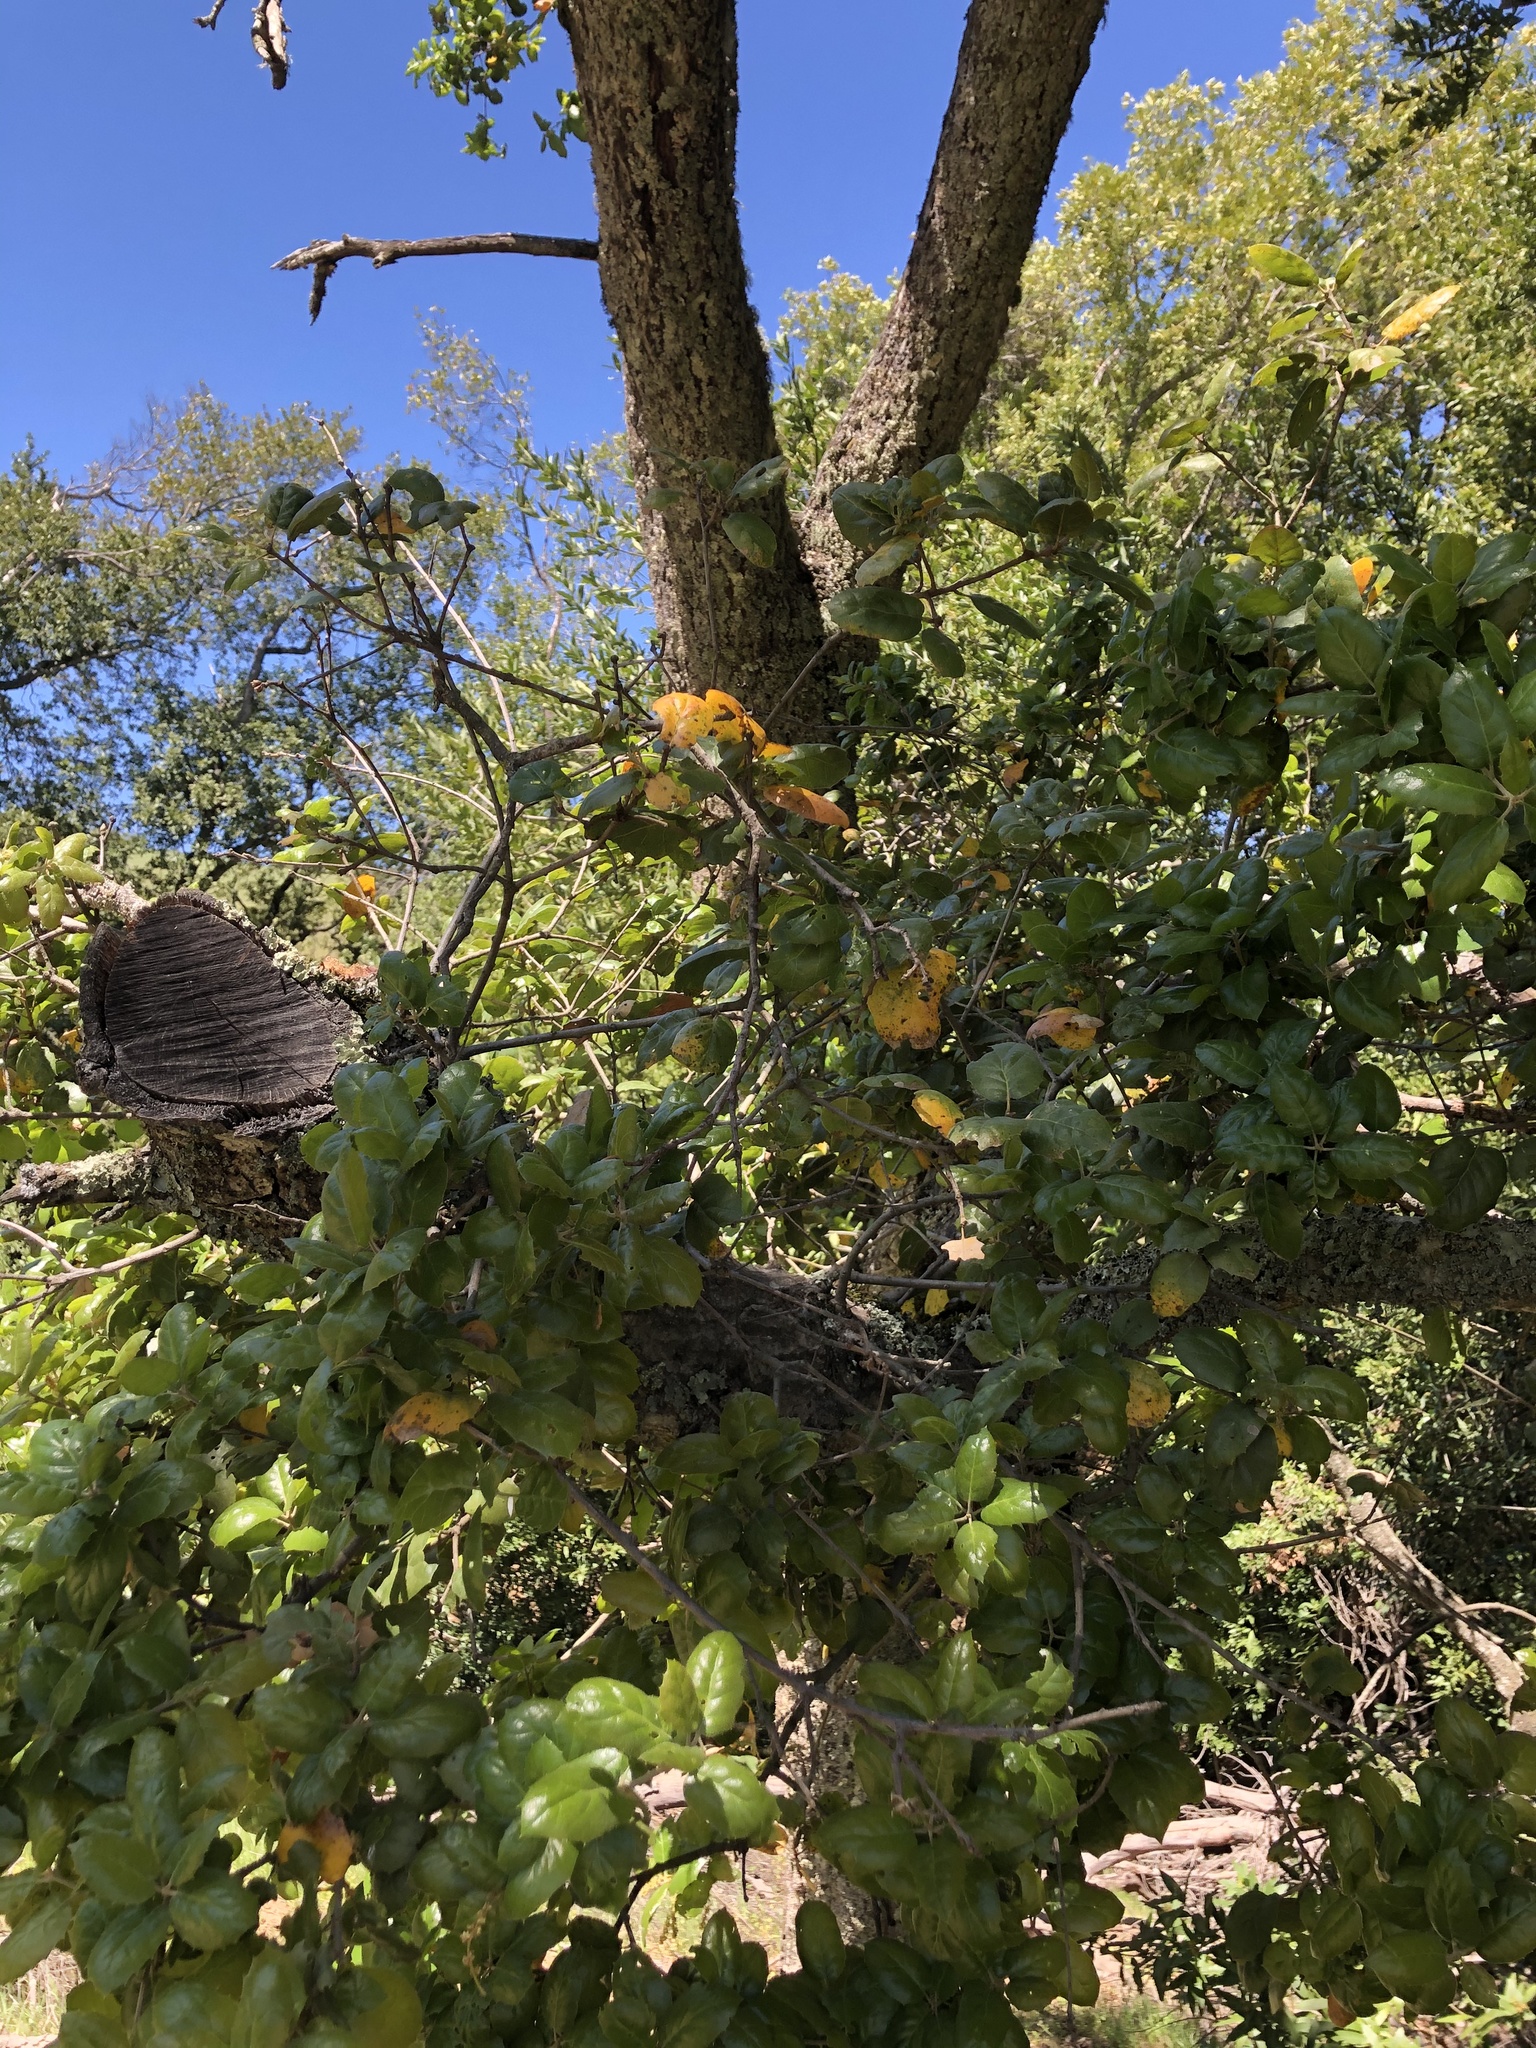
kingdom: Plantae
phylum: Tracheophyta
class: Magnoliopsida
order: Fagales
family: Fagaceae
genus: Quercus
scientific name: Quercus agrifolia
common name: California live oak
